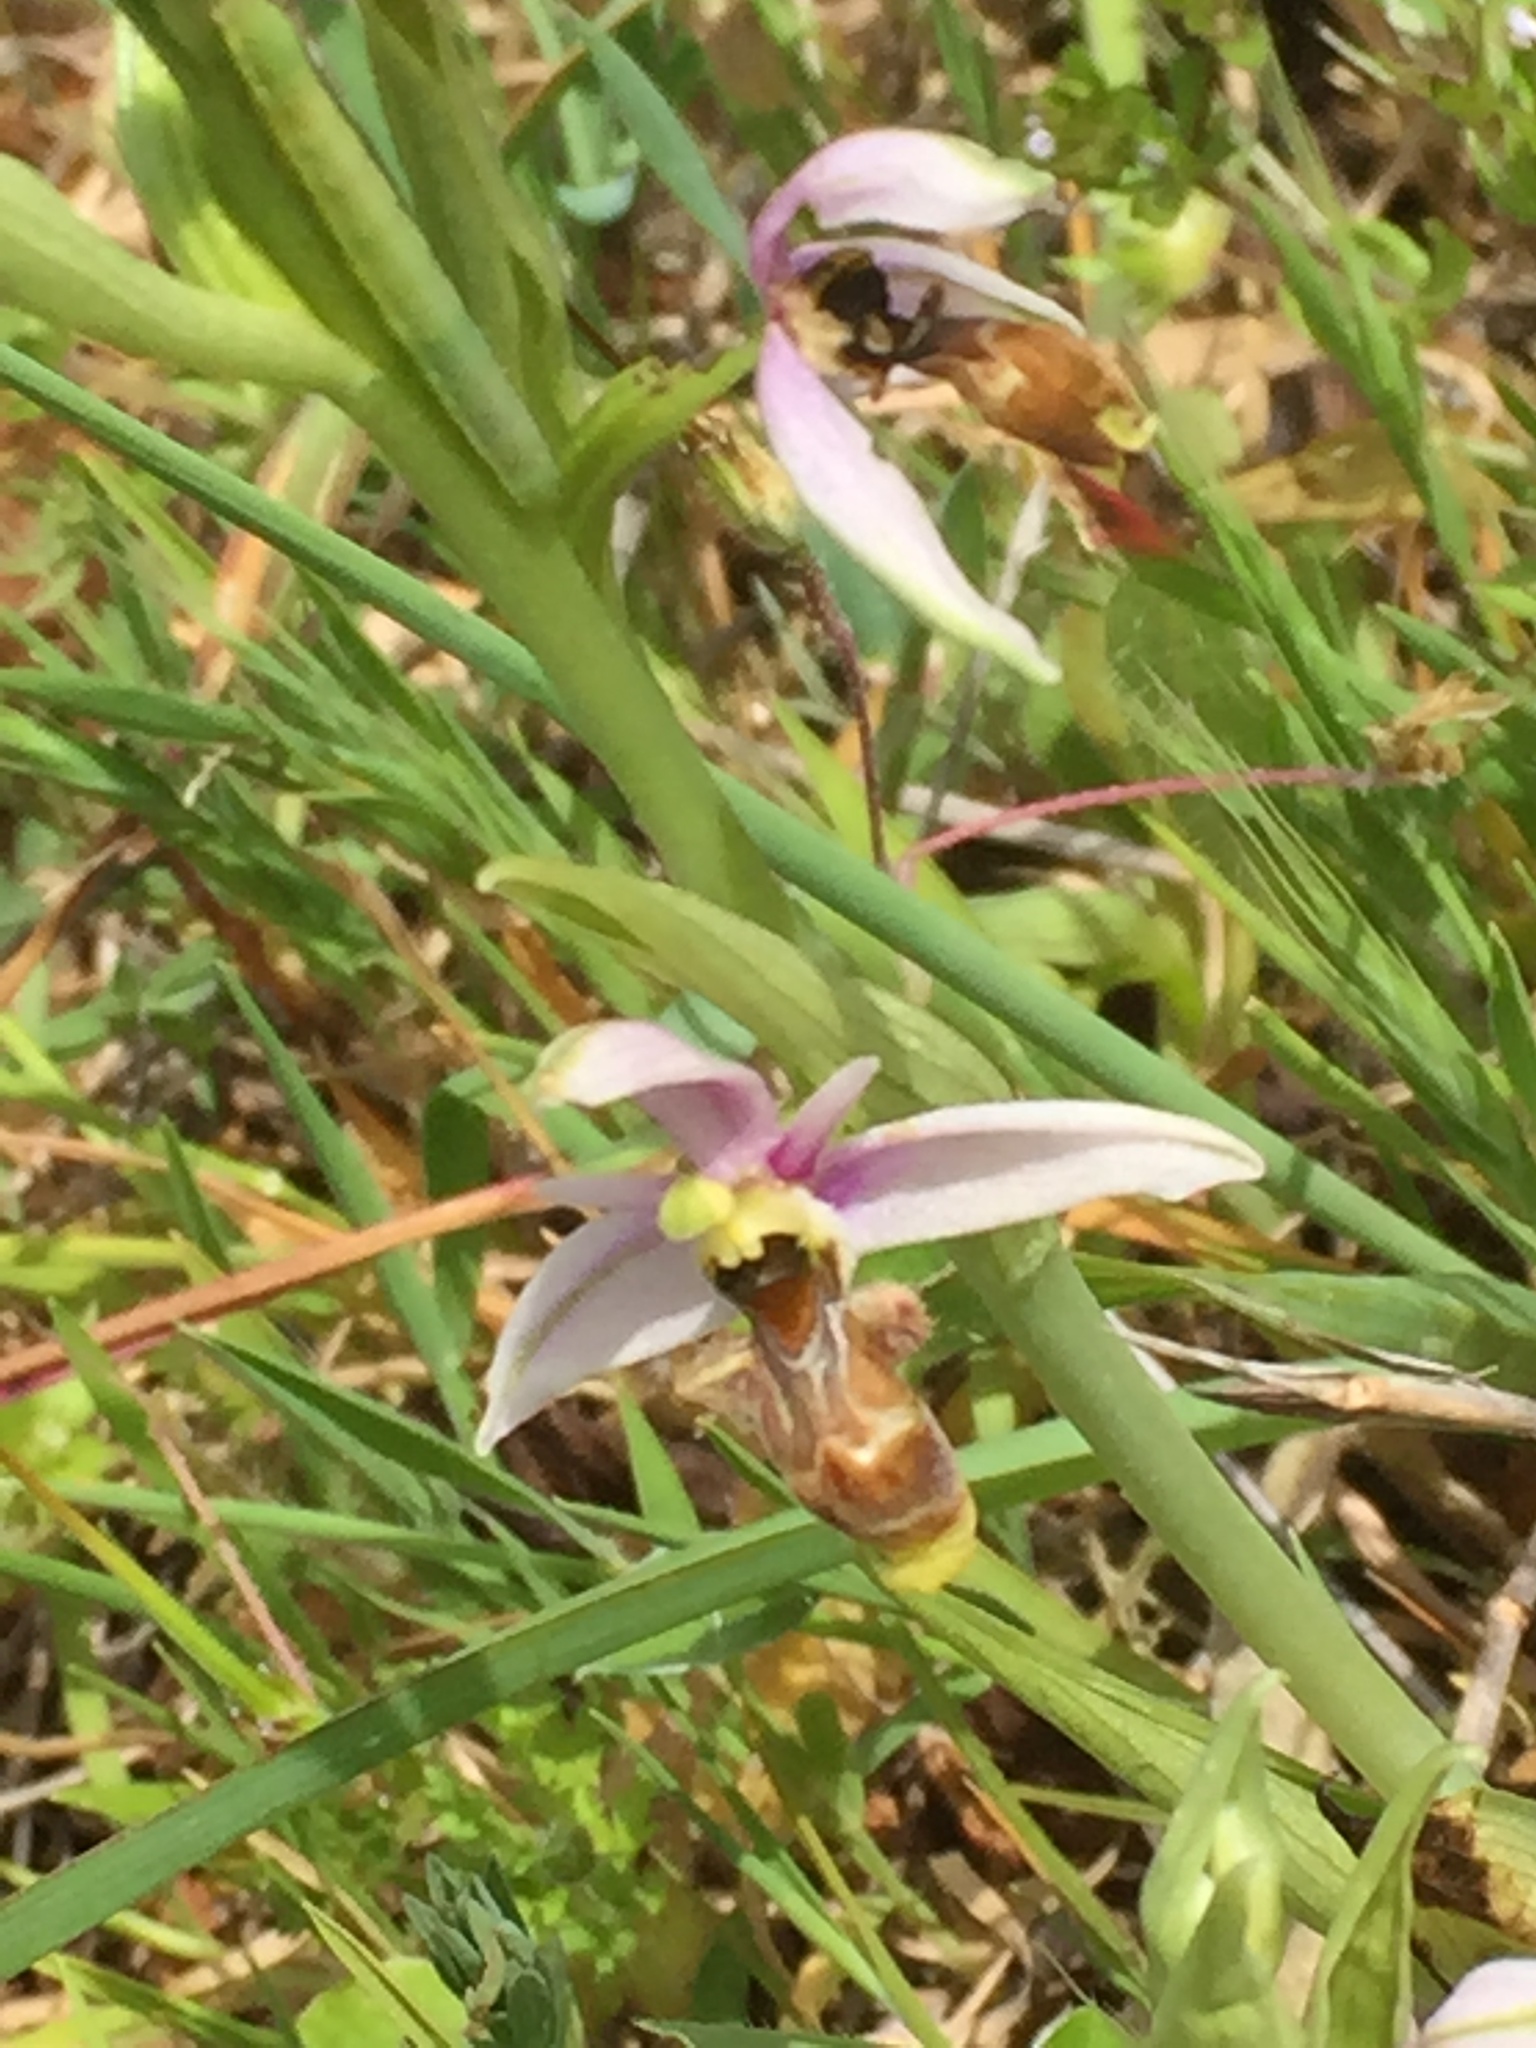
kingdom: Plantae
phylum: Tracheophyta
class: Liliopsida
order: Asparagales
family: Orchidaceae
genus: Ophrys
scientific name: Ophrys scolopax
